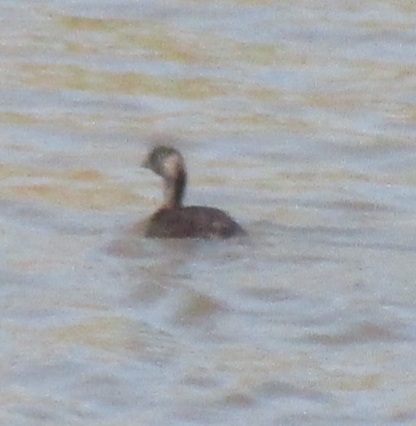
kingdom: Animalia
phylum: Chordata
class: Aves
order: Podicipediformes
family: Podicipedidae
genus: Podilymbus
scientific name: Podilymbus podiceps
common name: Pied-billed grebe
